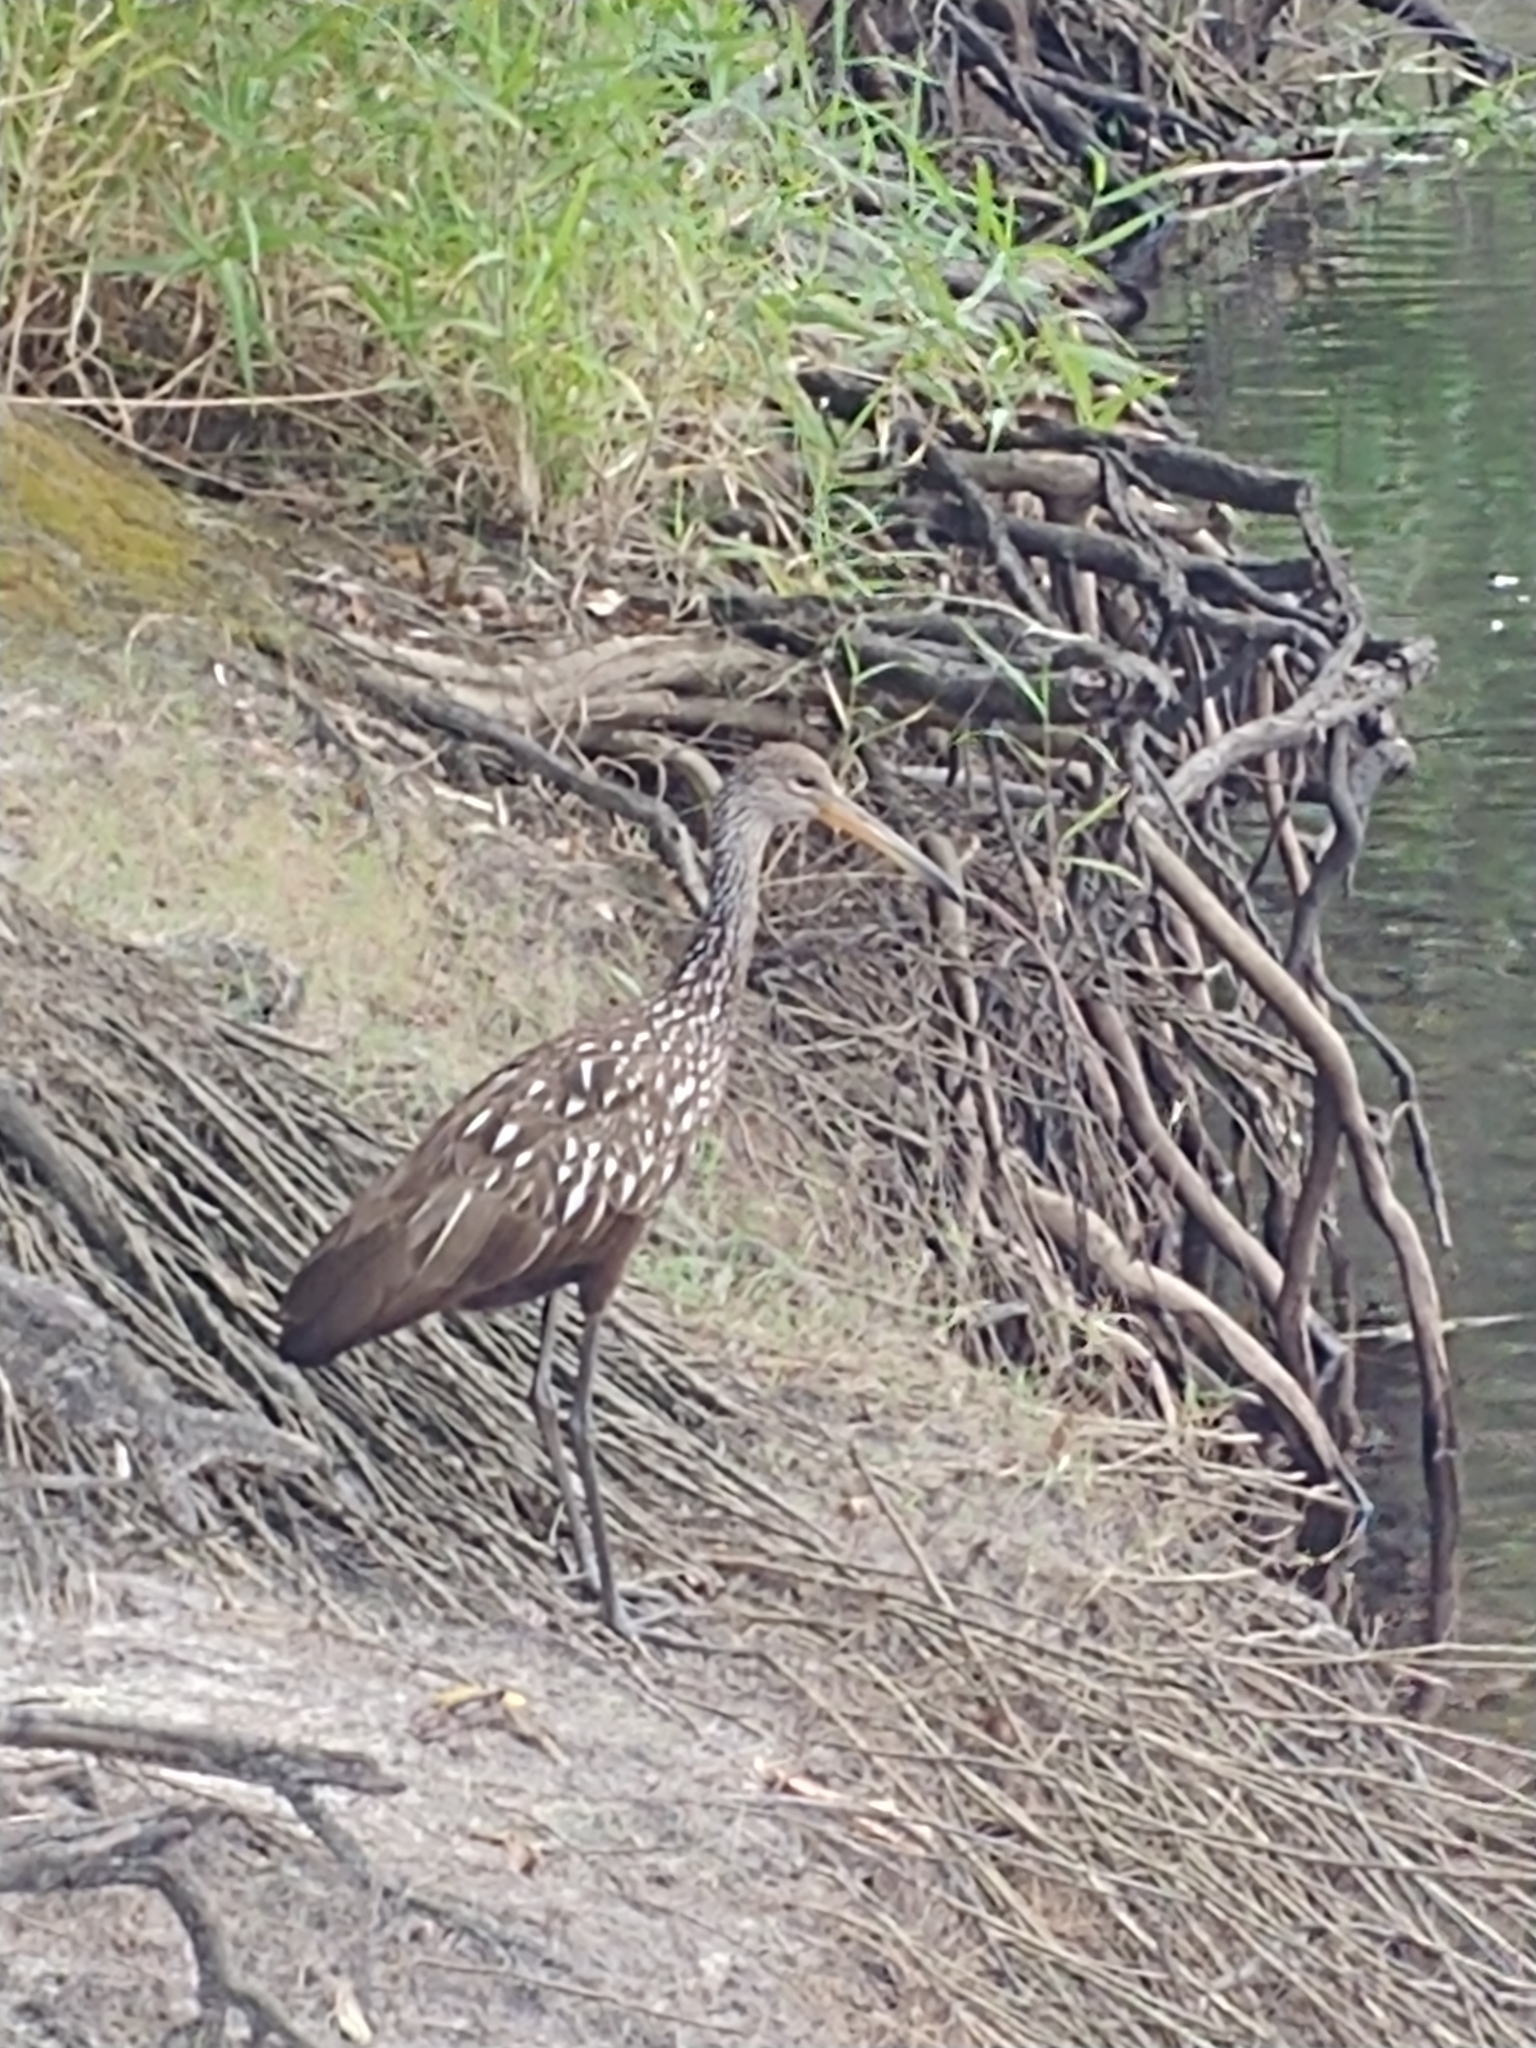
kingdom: Animalia
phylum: Chordata
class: Aves
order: Gruiformes
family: Aramidae
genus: Aramus
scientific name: Aramus guarauna
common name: Limpkin
